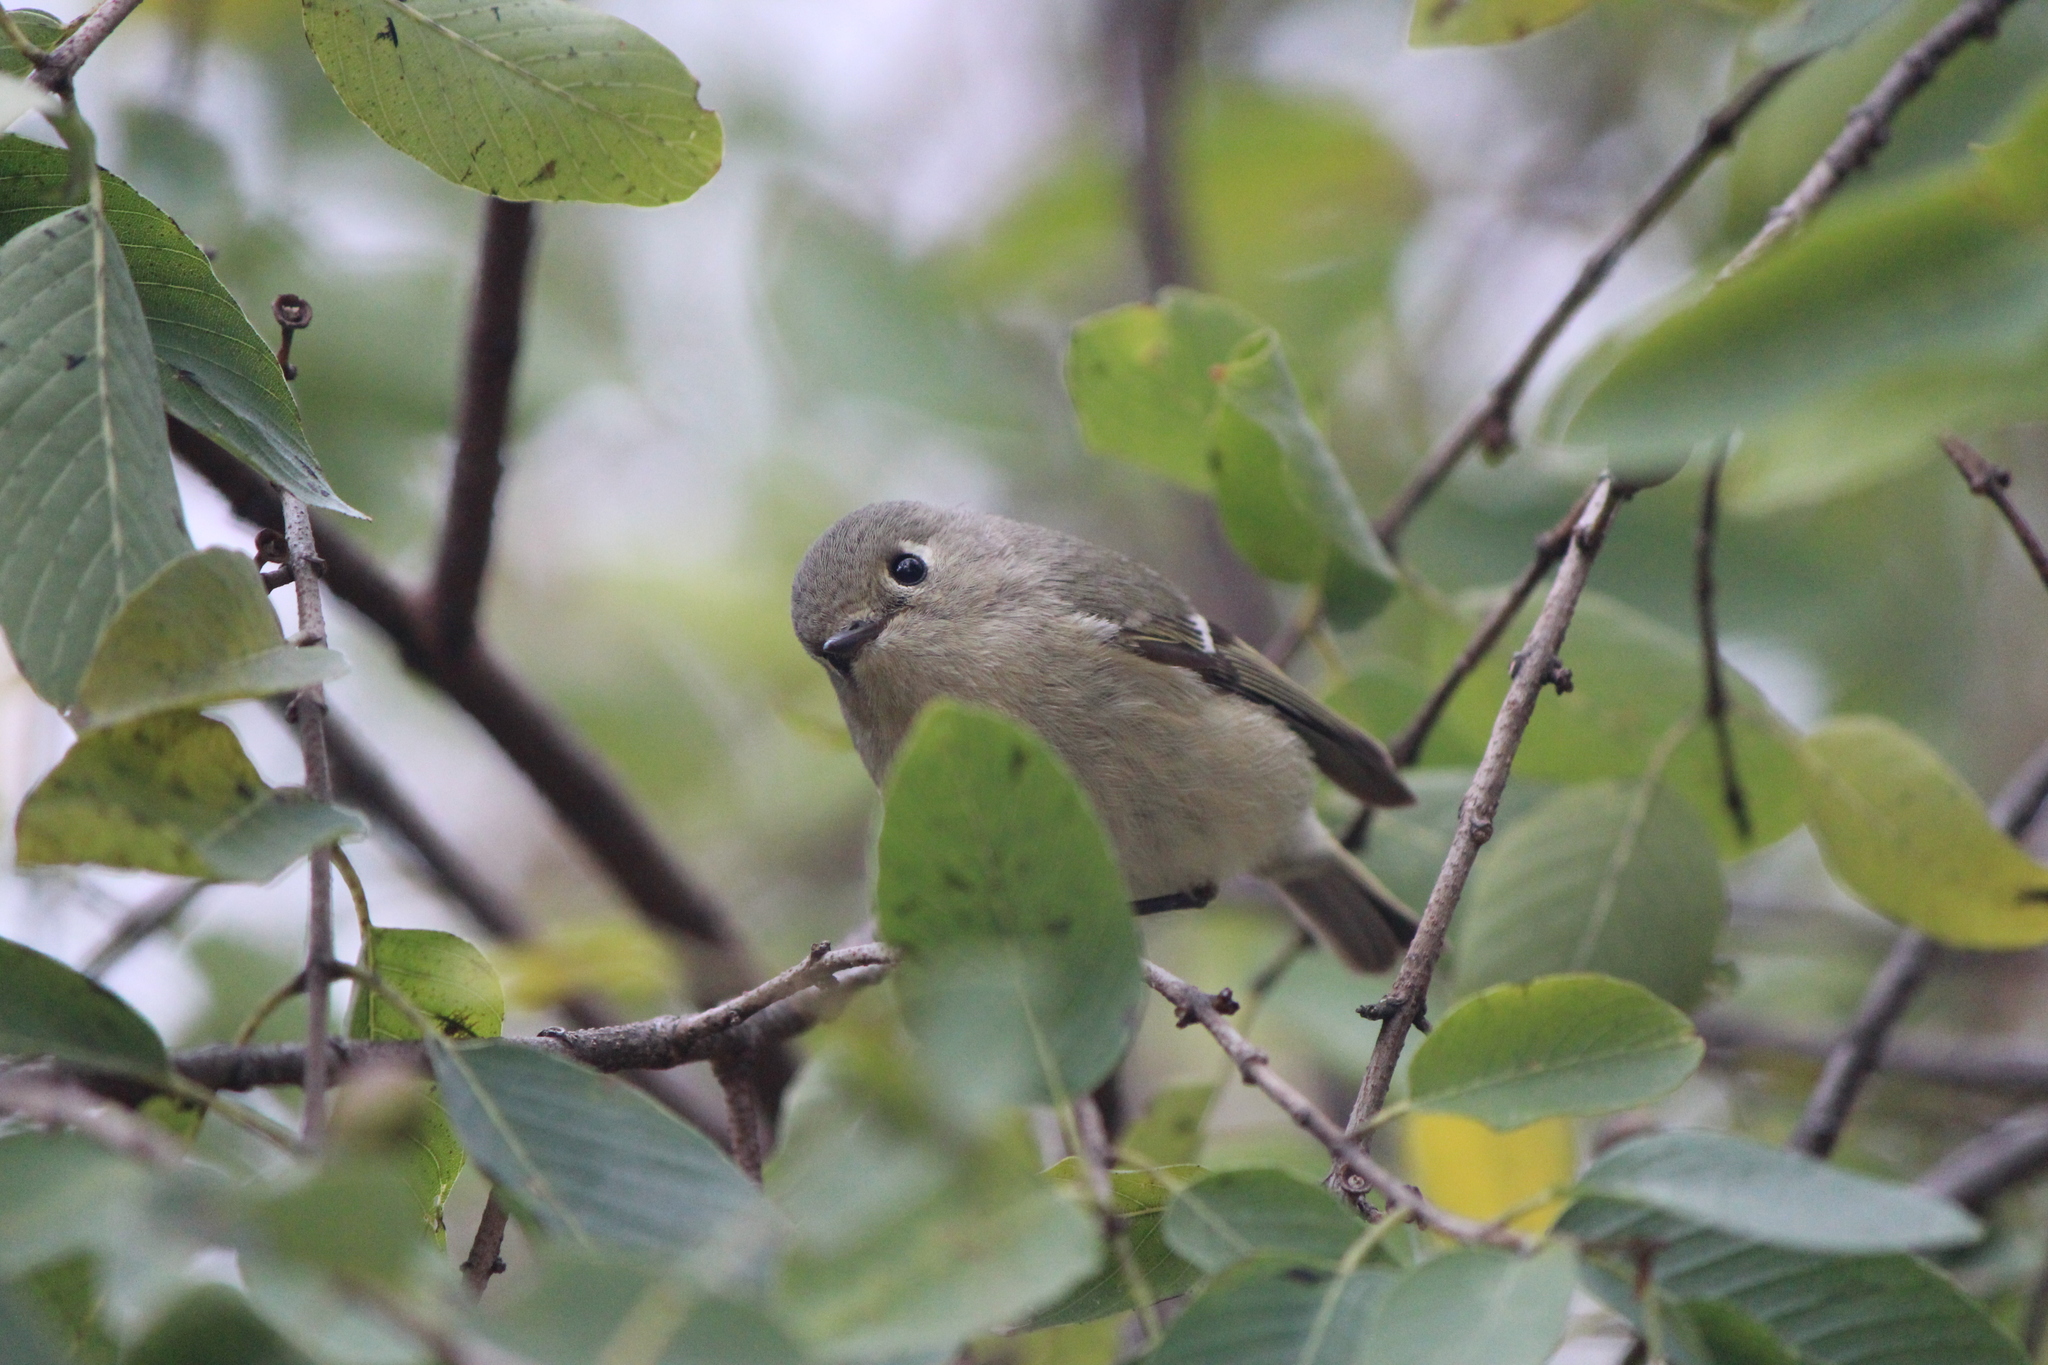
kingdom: Animalia
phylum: Chordata
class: Aves
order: Passeriformes
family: Regulidae
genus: Regulus
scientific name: Regulus calendula
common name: Ruby-crowned kinglet
